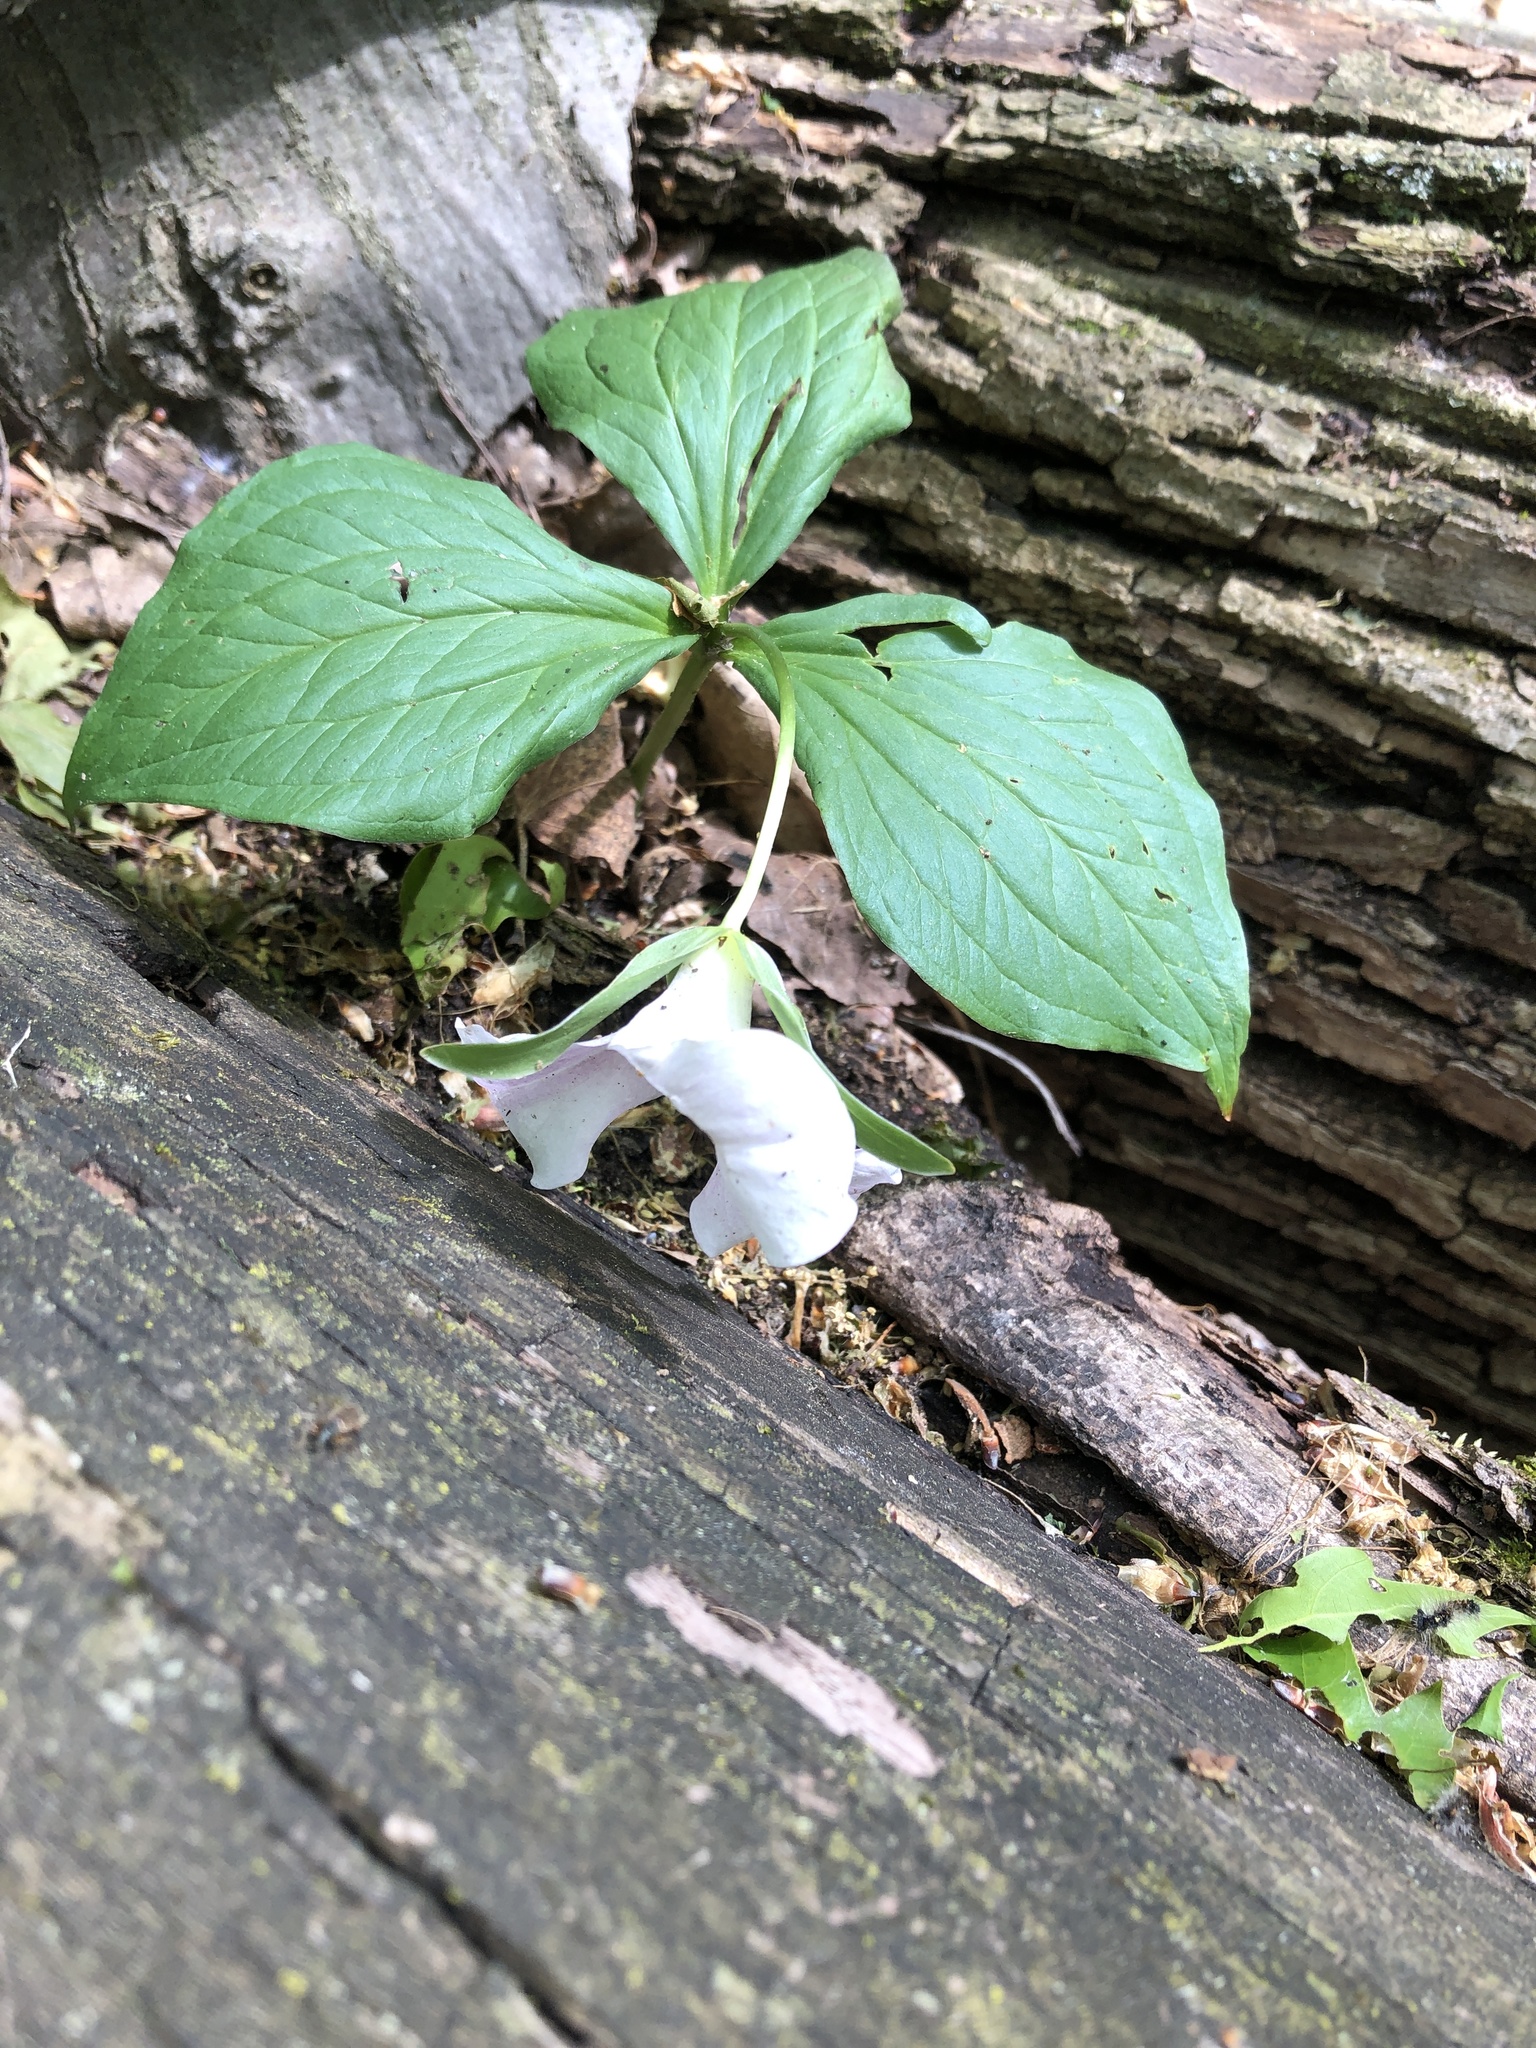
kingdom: Plantae
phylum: Tracheophyta
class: Liliopsida
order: Liliales
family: Melanthiaceae
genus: Trillium
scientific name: Trillium grandiflorum
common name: Great white trillium
